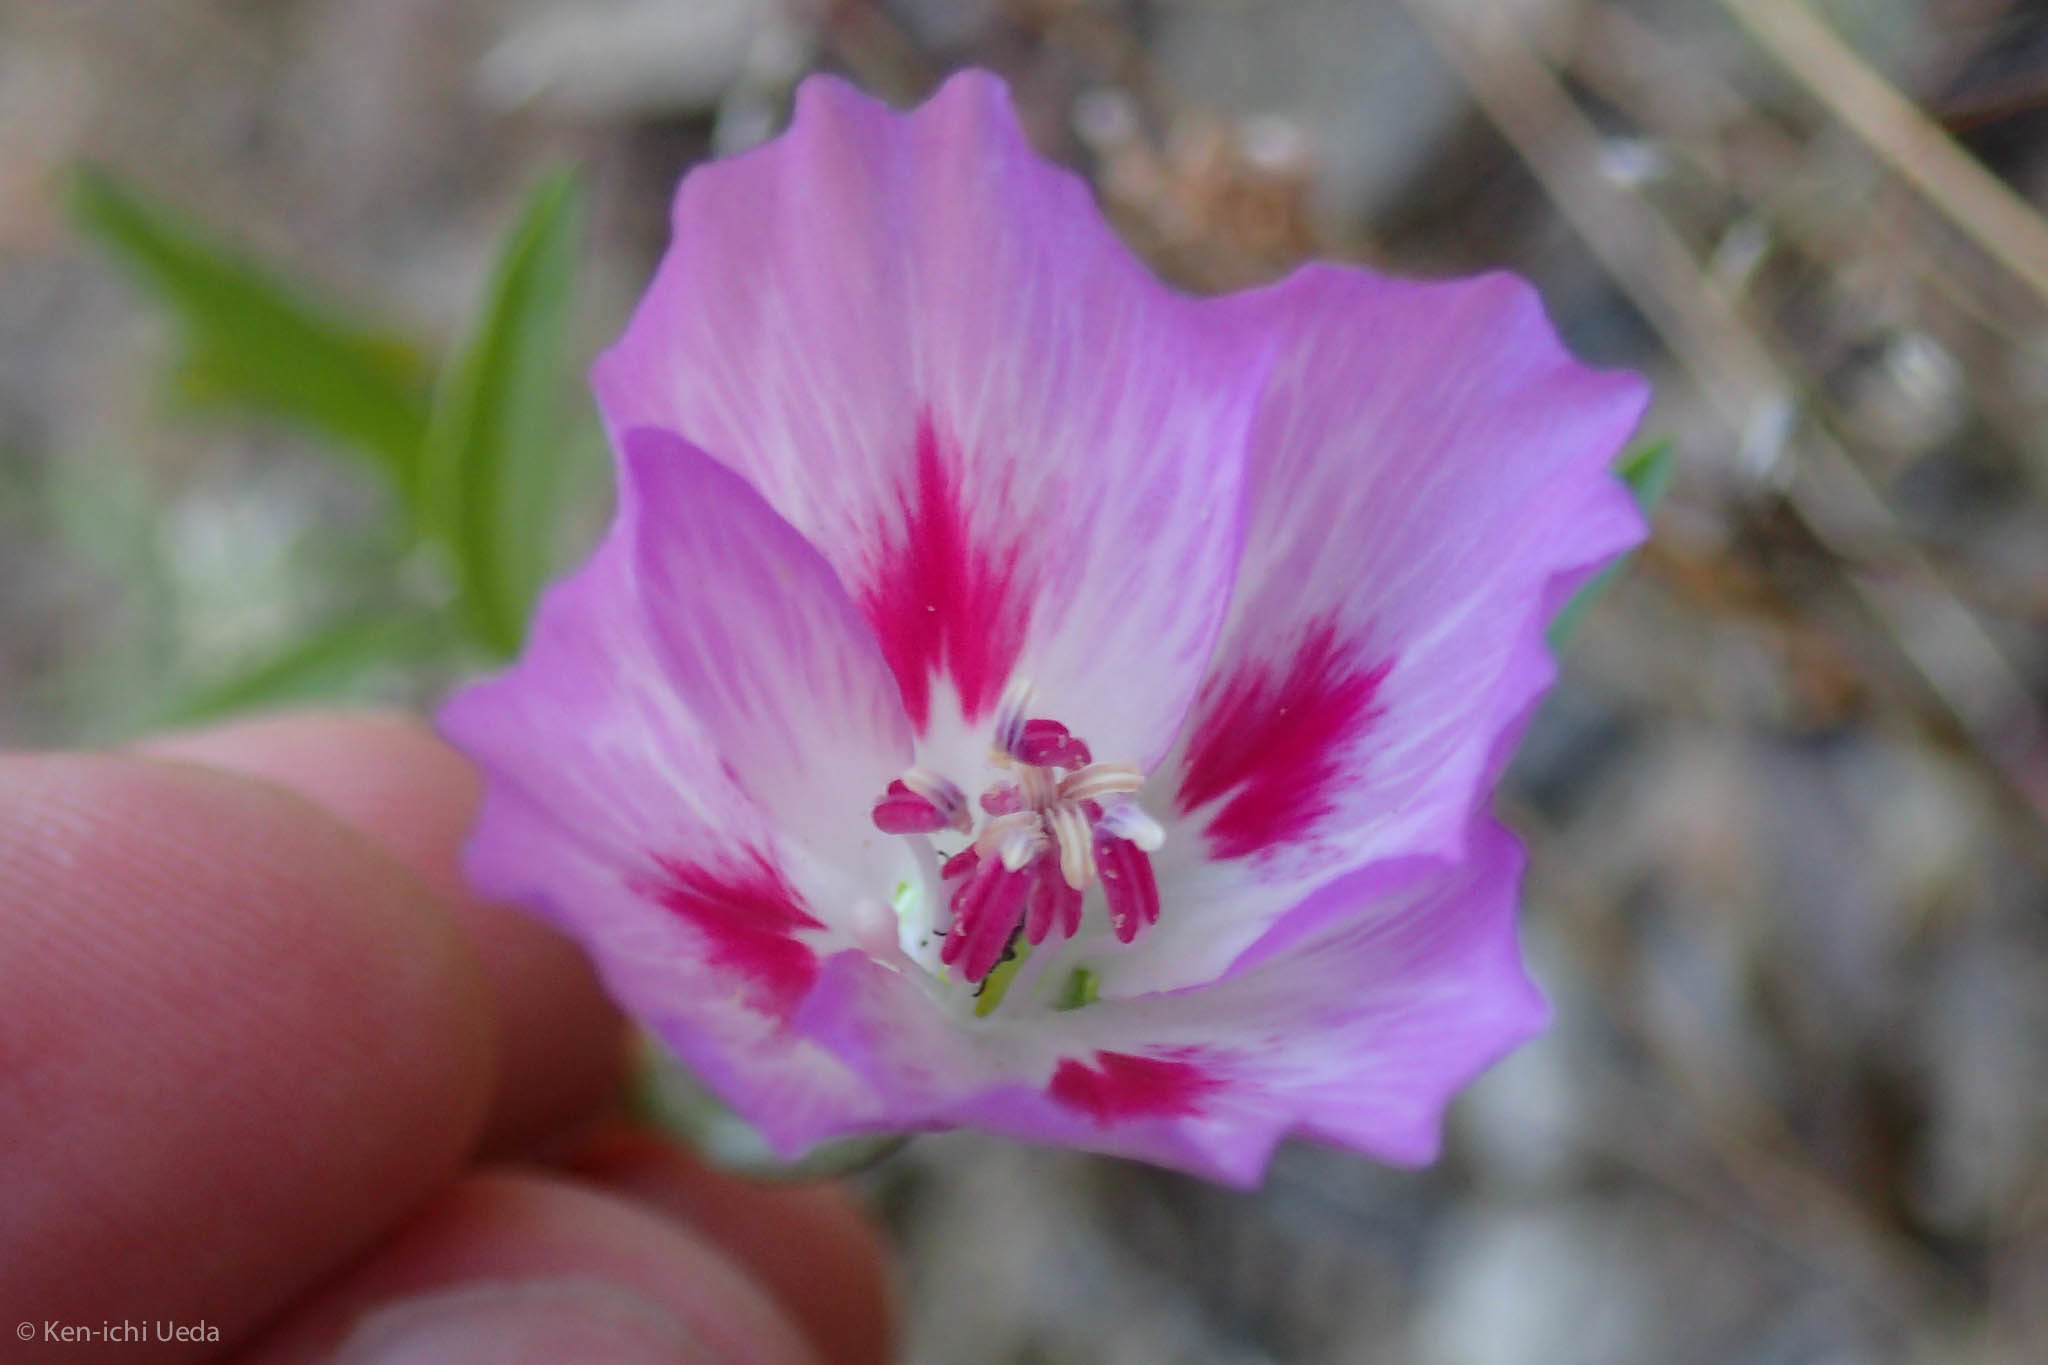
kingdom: Plantae
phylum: Tracheophyta
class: Magnoliopsida
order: Myrtales
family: Onagraceae
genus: Clarkia
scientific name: Clarkia amoena
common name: Godetia
